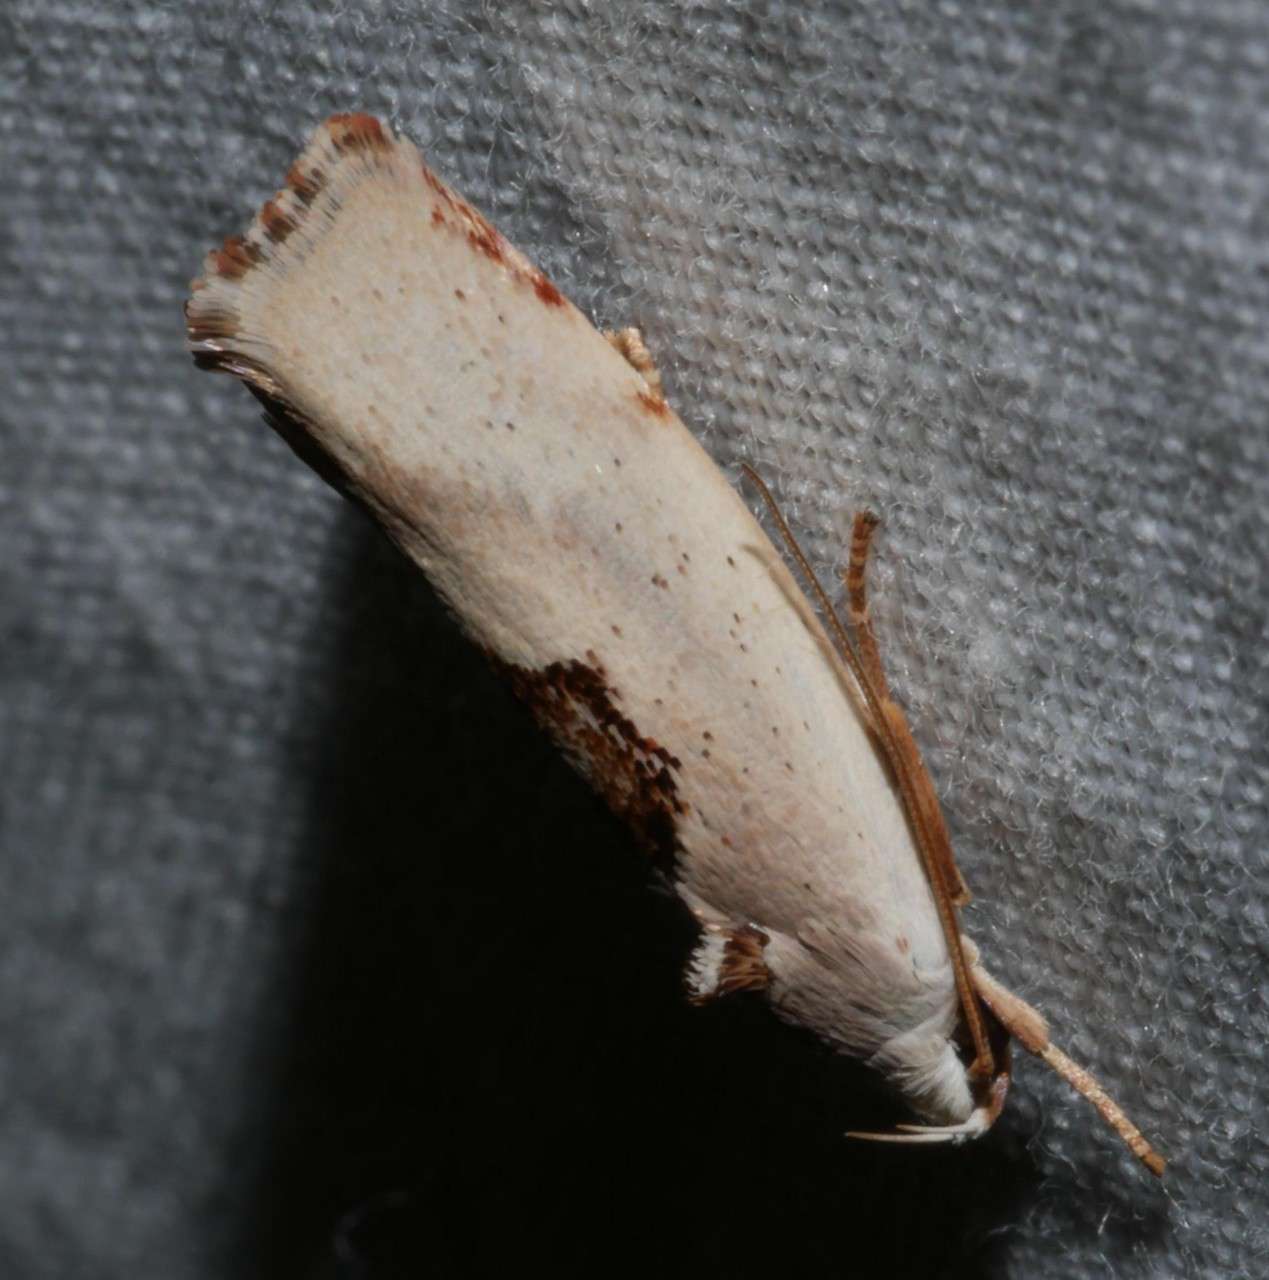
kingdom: Animalia
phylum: Arthropoda
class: Insecta
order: Lepidoptera
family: Xyloryctidae
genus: Tymbophora
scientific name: Tymbophora peltastis
